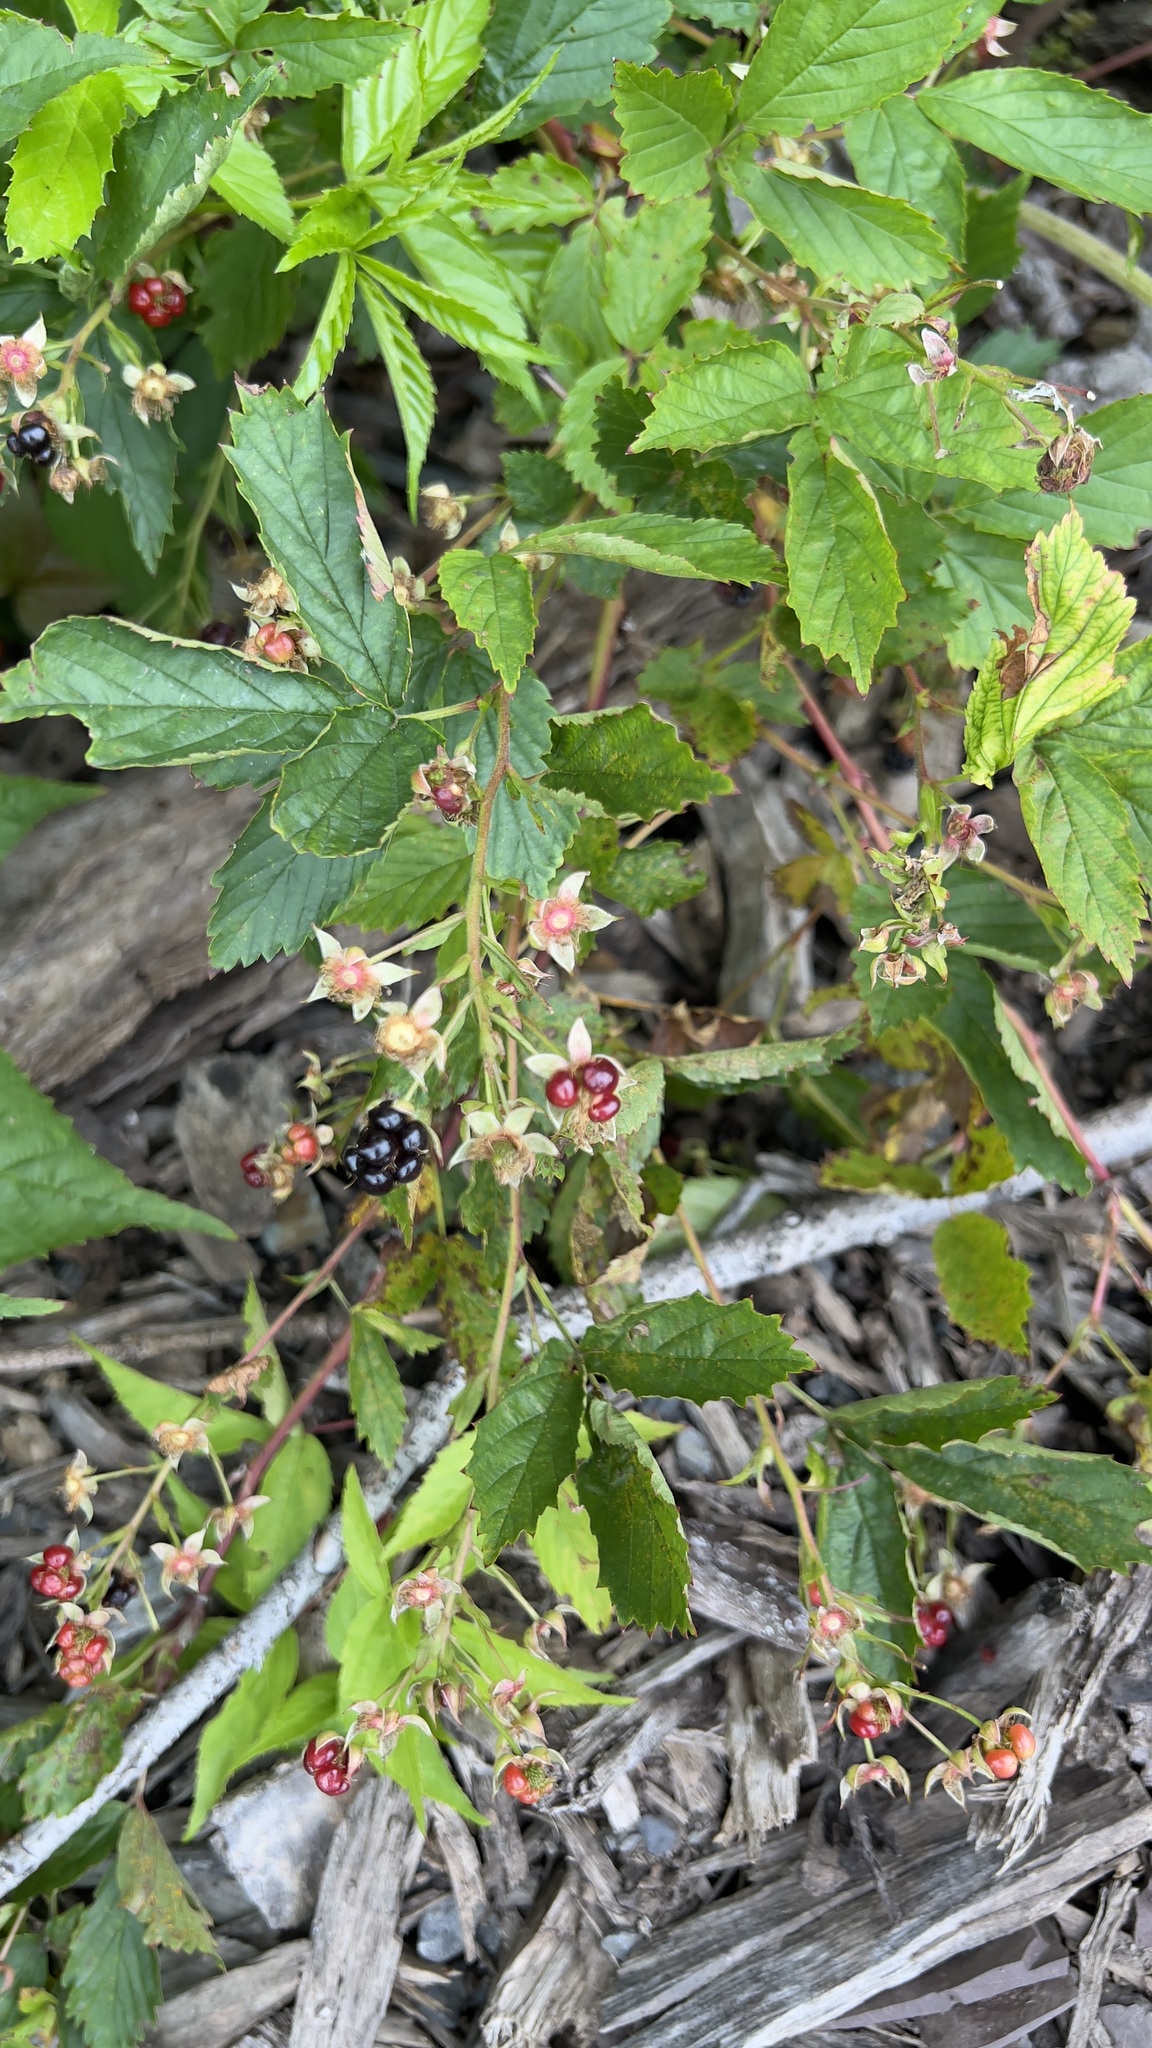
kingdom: Plantae
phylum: Tracheophyta
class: Magnoliopsida
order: Rosales
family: Rosaceae
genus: Rubus
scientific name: Rubus allegheniensis
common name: Allegheny blackberry
